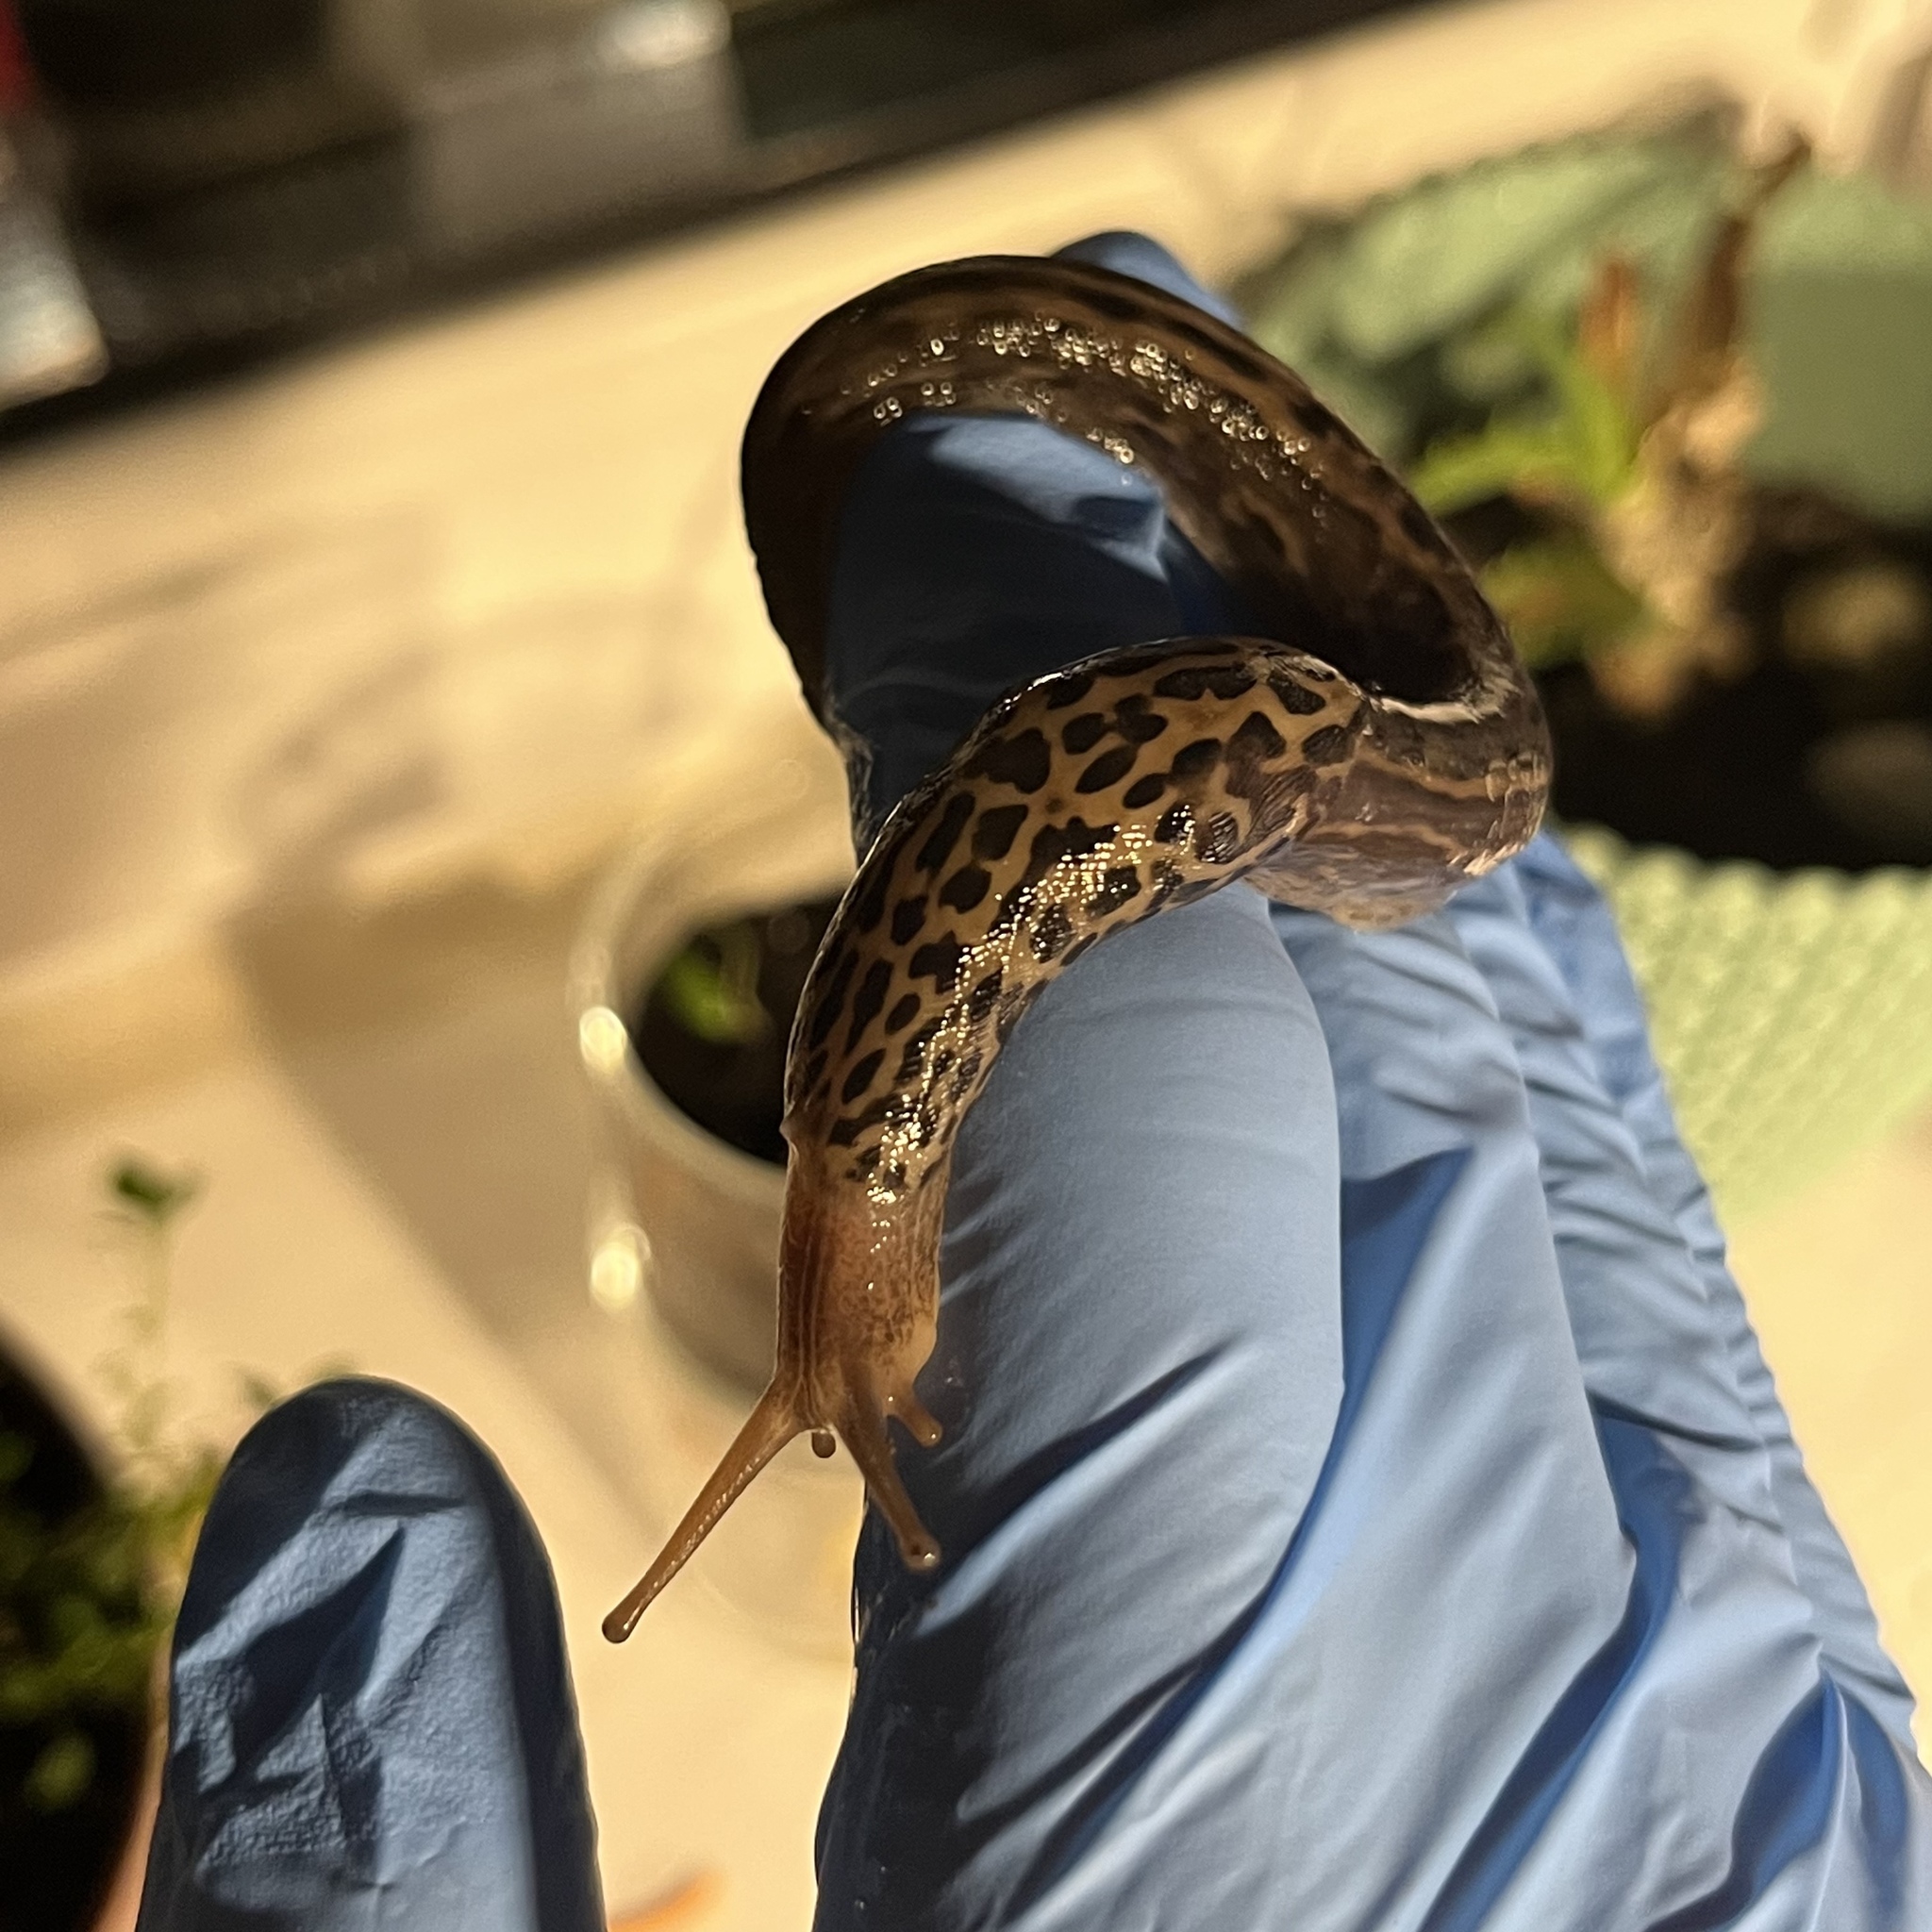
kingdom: Animalia
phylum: Mollusca
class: Gastropoda
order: Stylommatophora
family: Limacidae
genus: Limax
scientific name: Limax maximus
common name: Great grey slug
